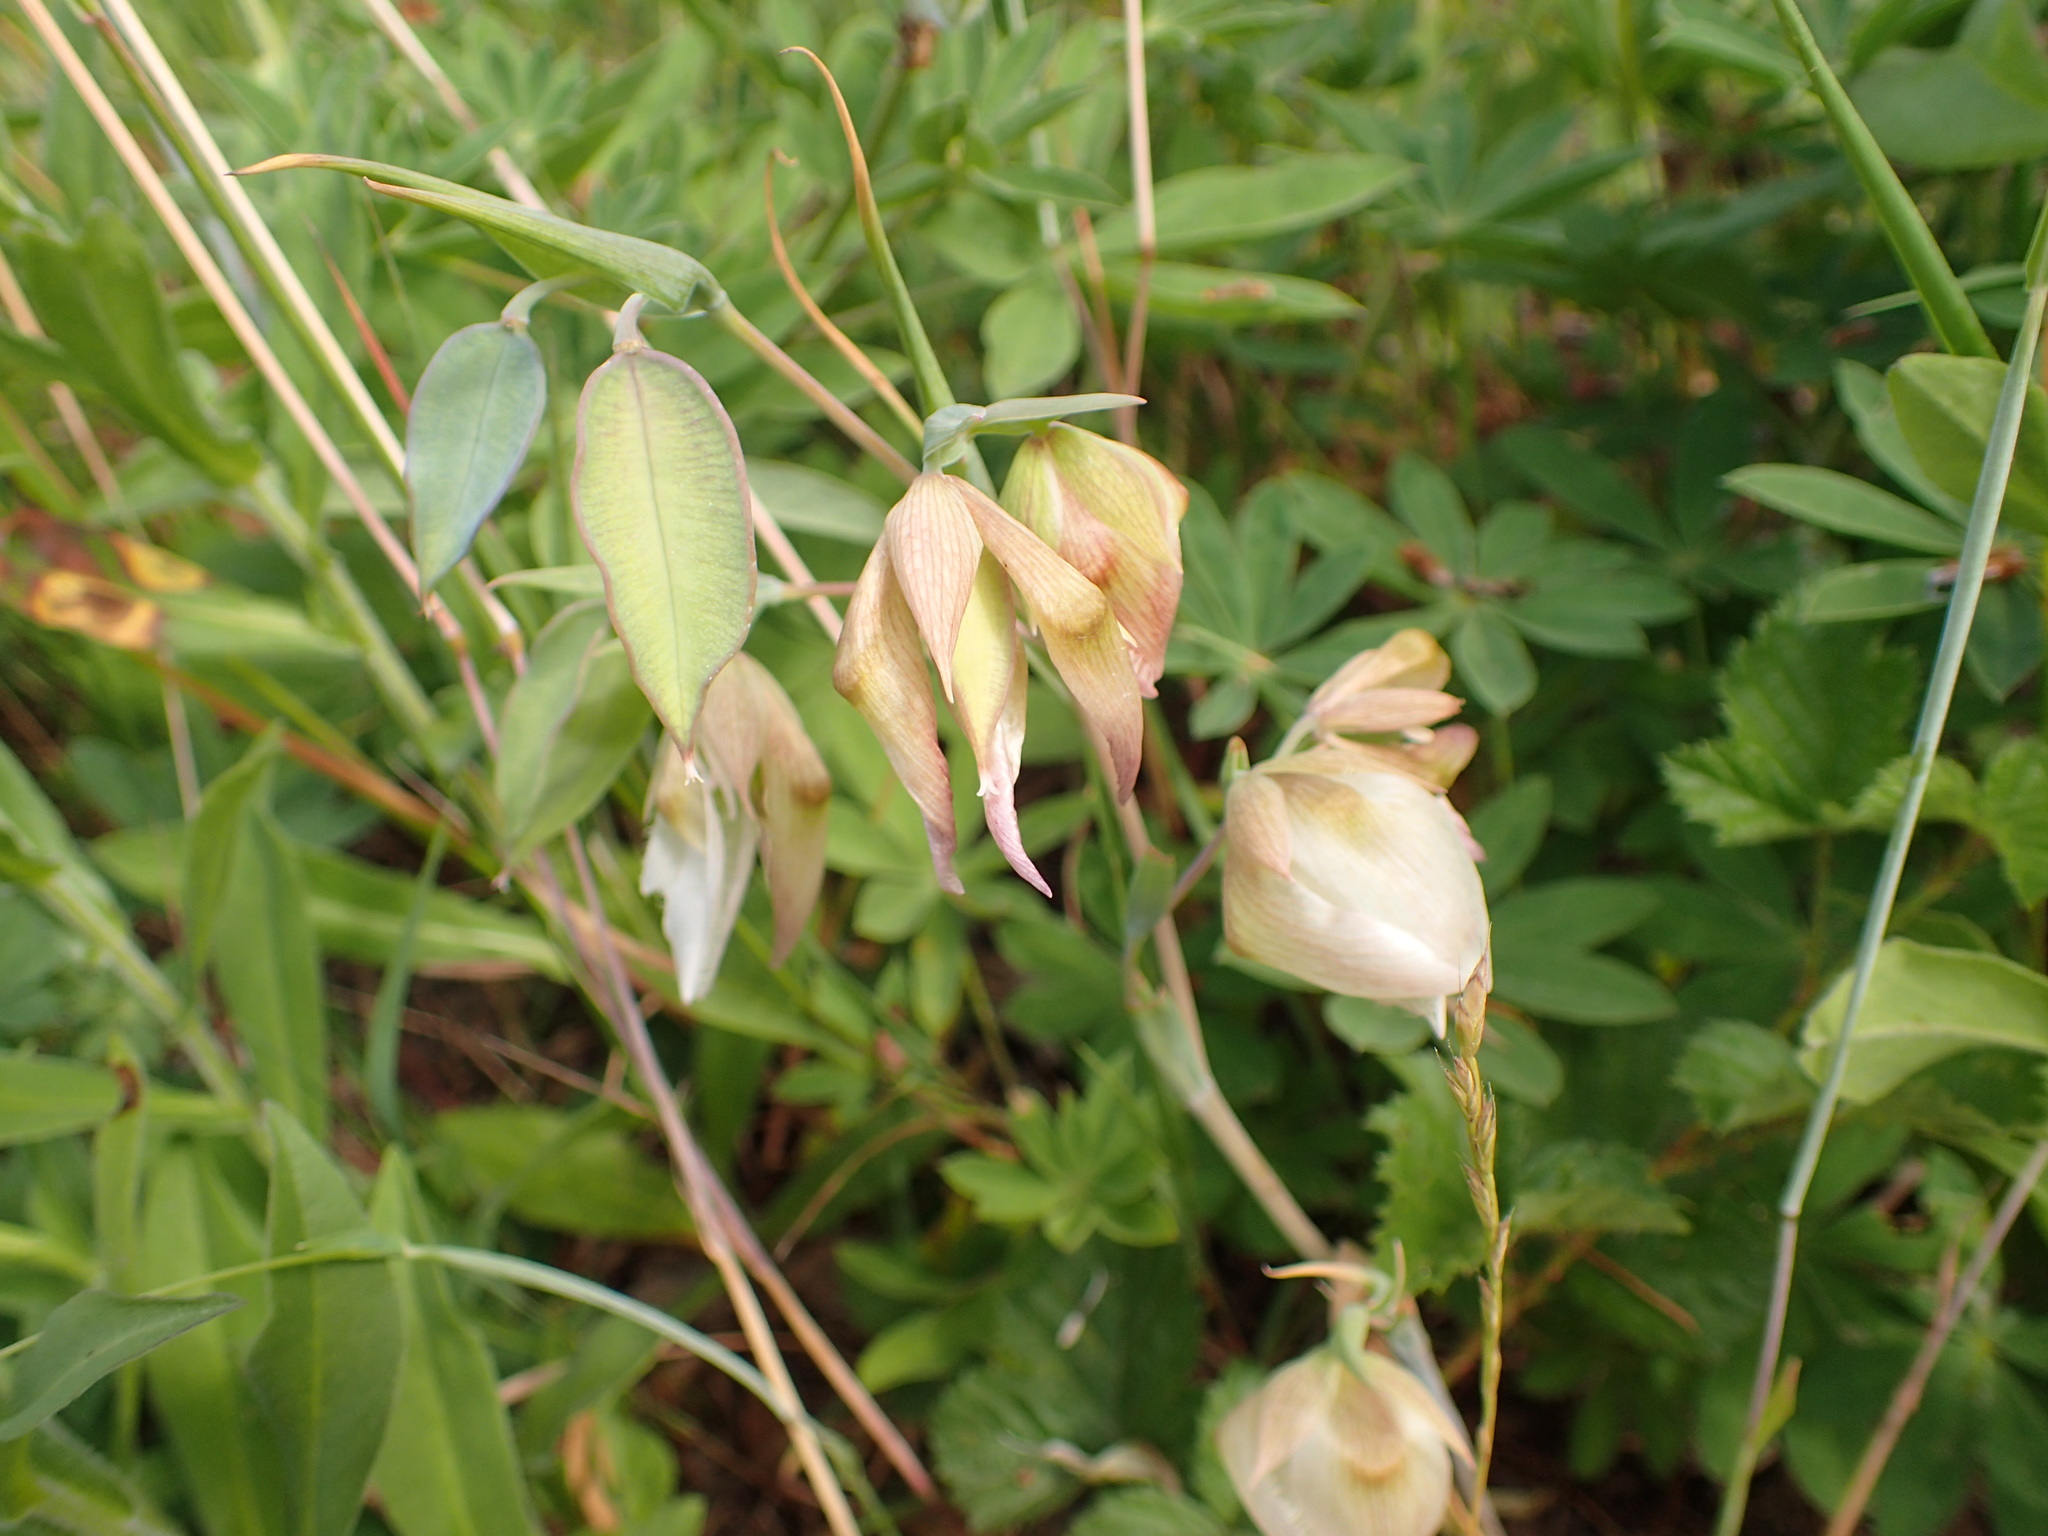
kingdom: Plantae
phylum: Tracheophyta
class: Liliopsida
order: Liliales
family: Liliaceae
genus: Calochortus
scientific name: Calochortus albus
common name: Fairy-lantern
